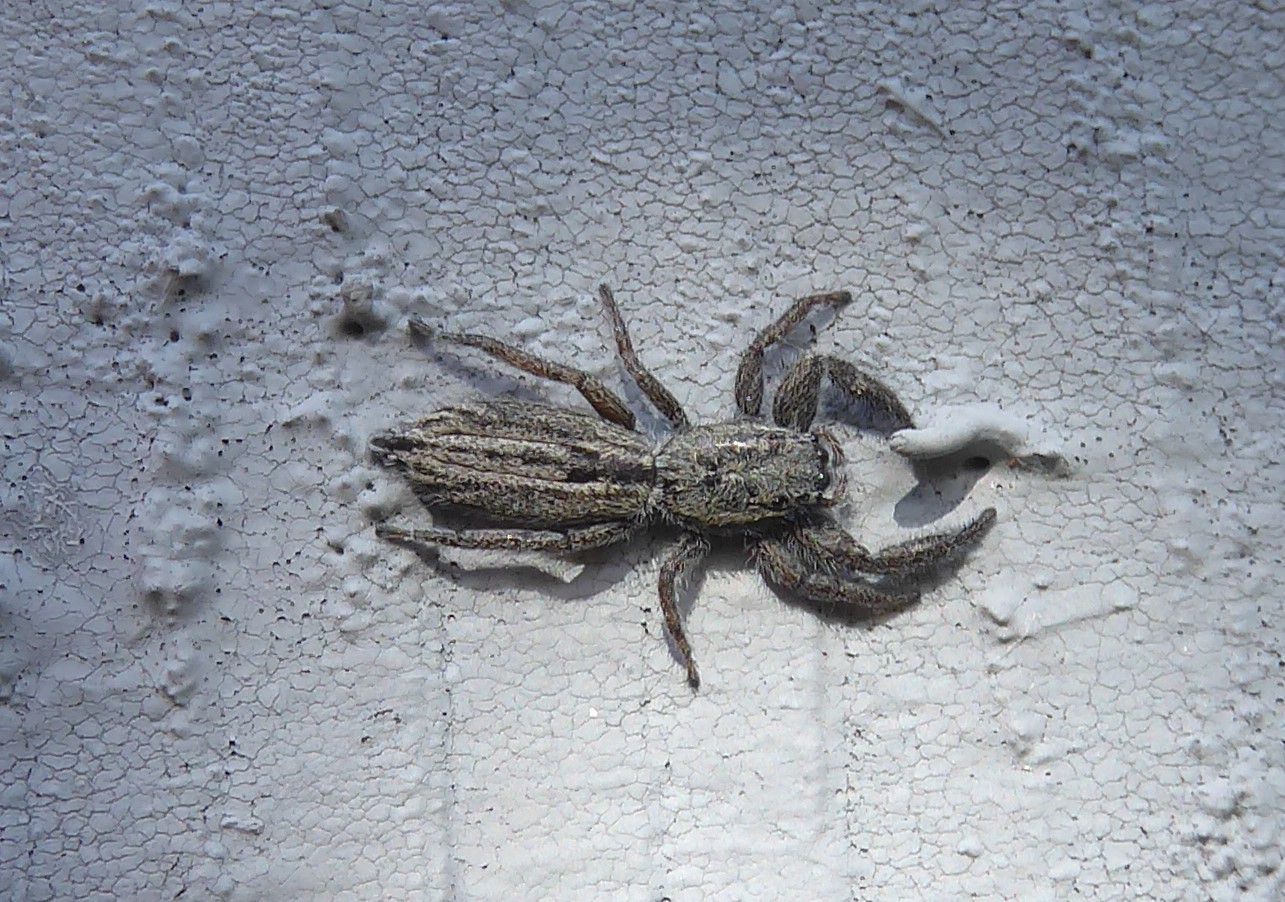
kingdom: Animalia
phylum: Arthropoda
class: Arachnida
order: Araneae
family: Salticidae
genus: Holoplatys
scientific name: Holoplatys apressus
